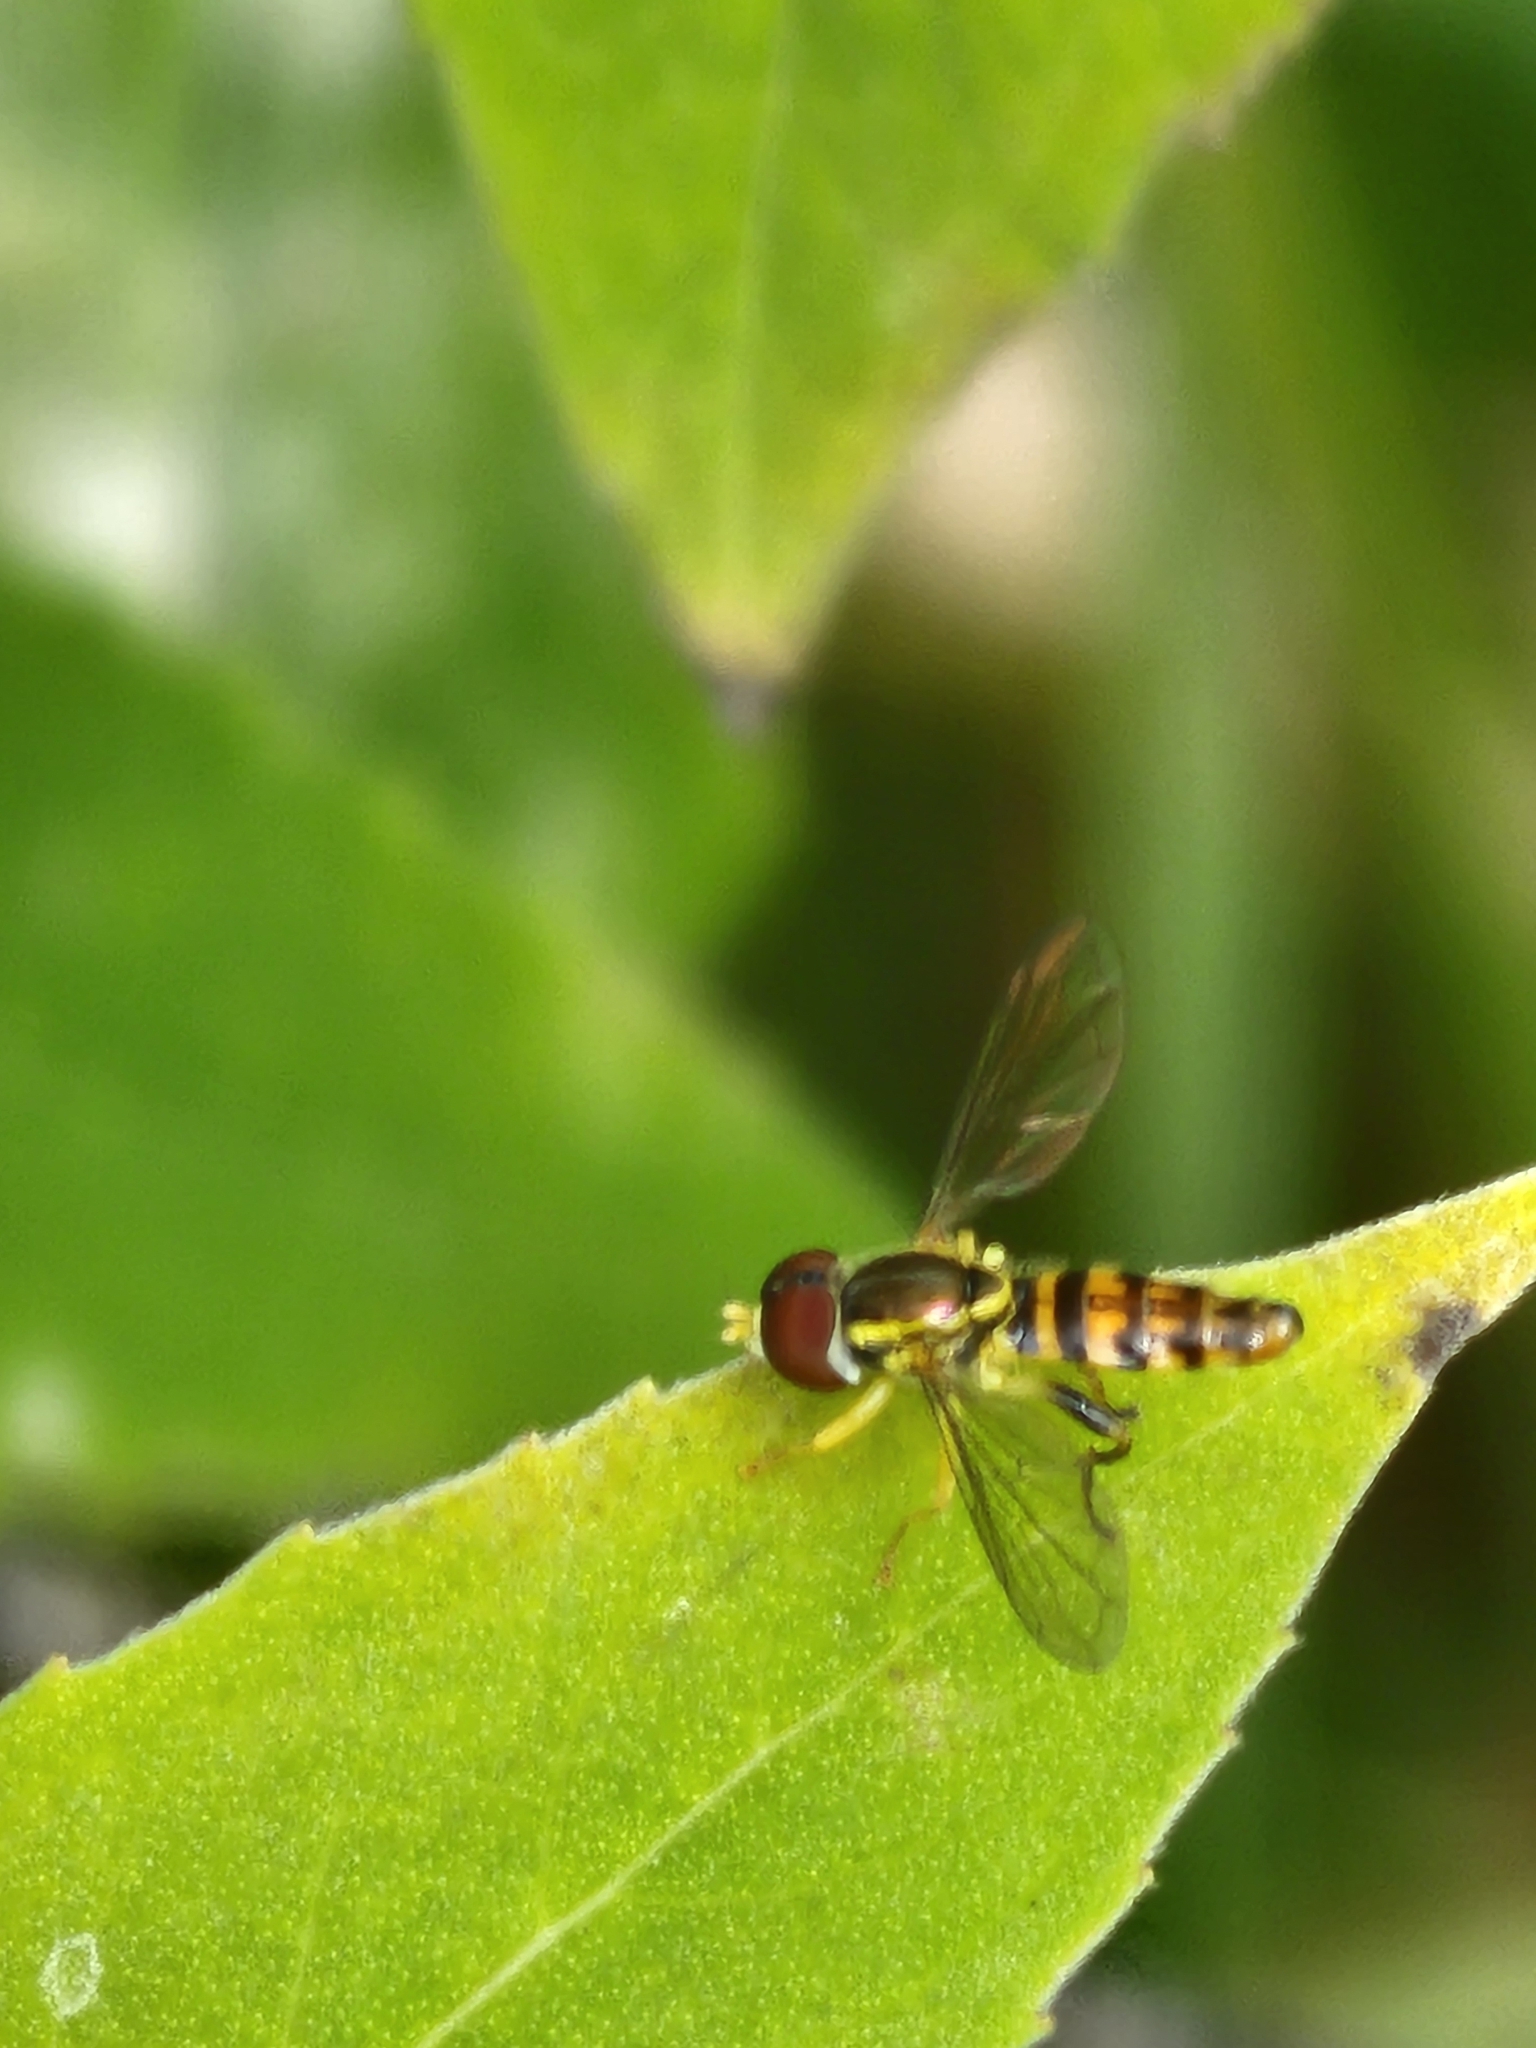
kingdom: Animalia
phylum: Arthropoda
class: Insecta
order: Diptera
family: Syrphidae
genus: Toxomerus
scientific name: Toxomerus geminatus
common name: Eastern calligrapher
